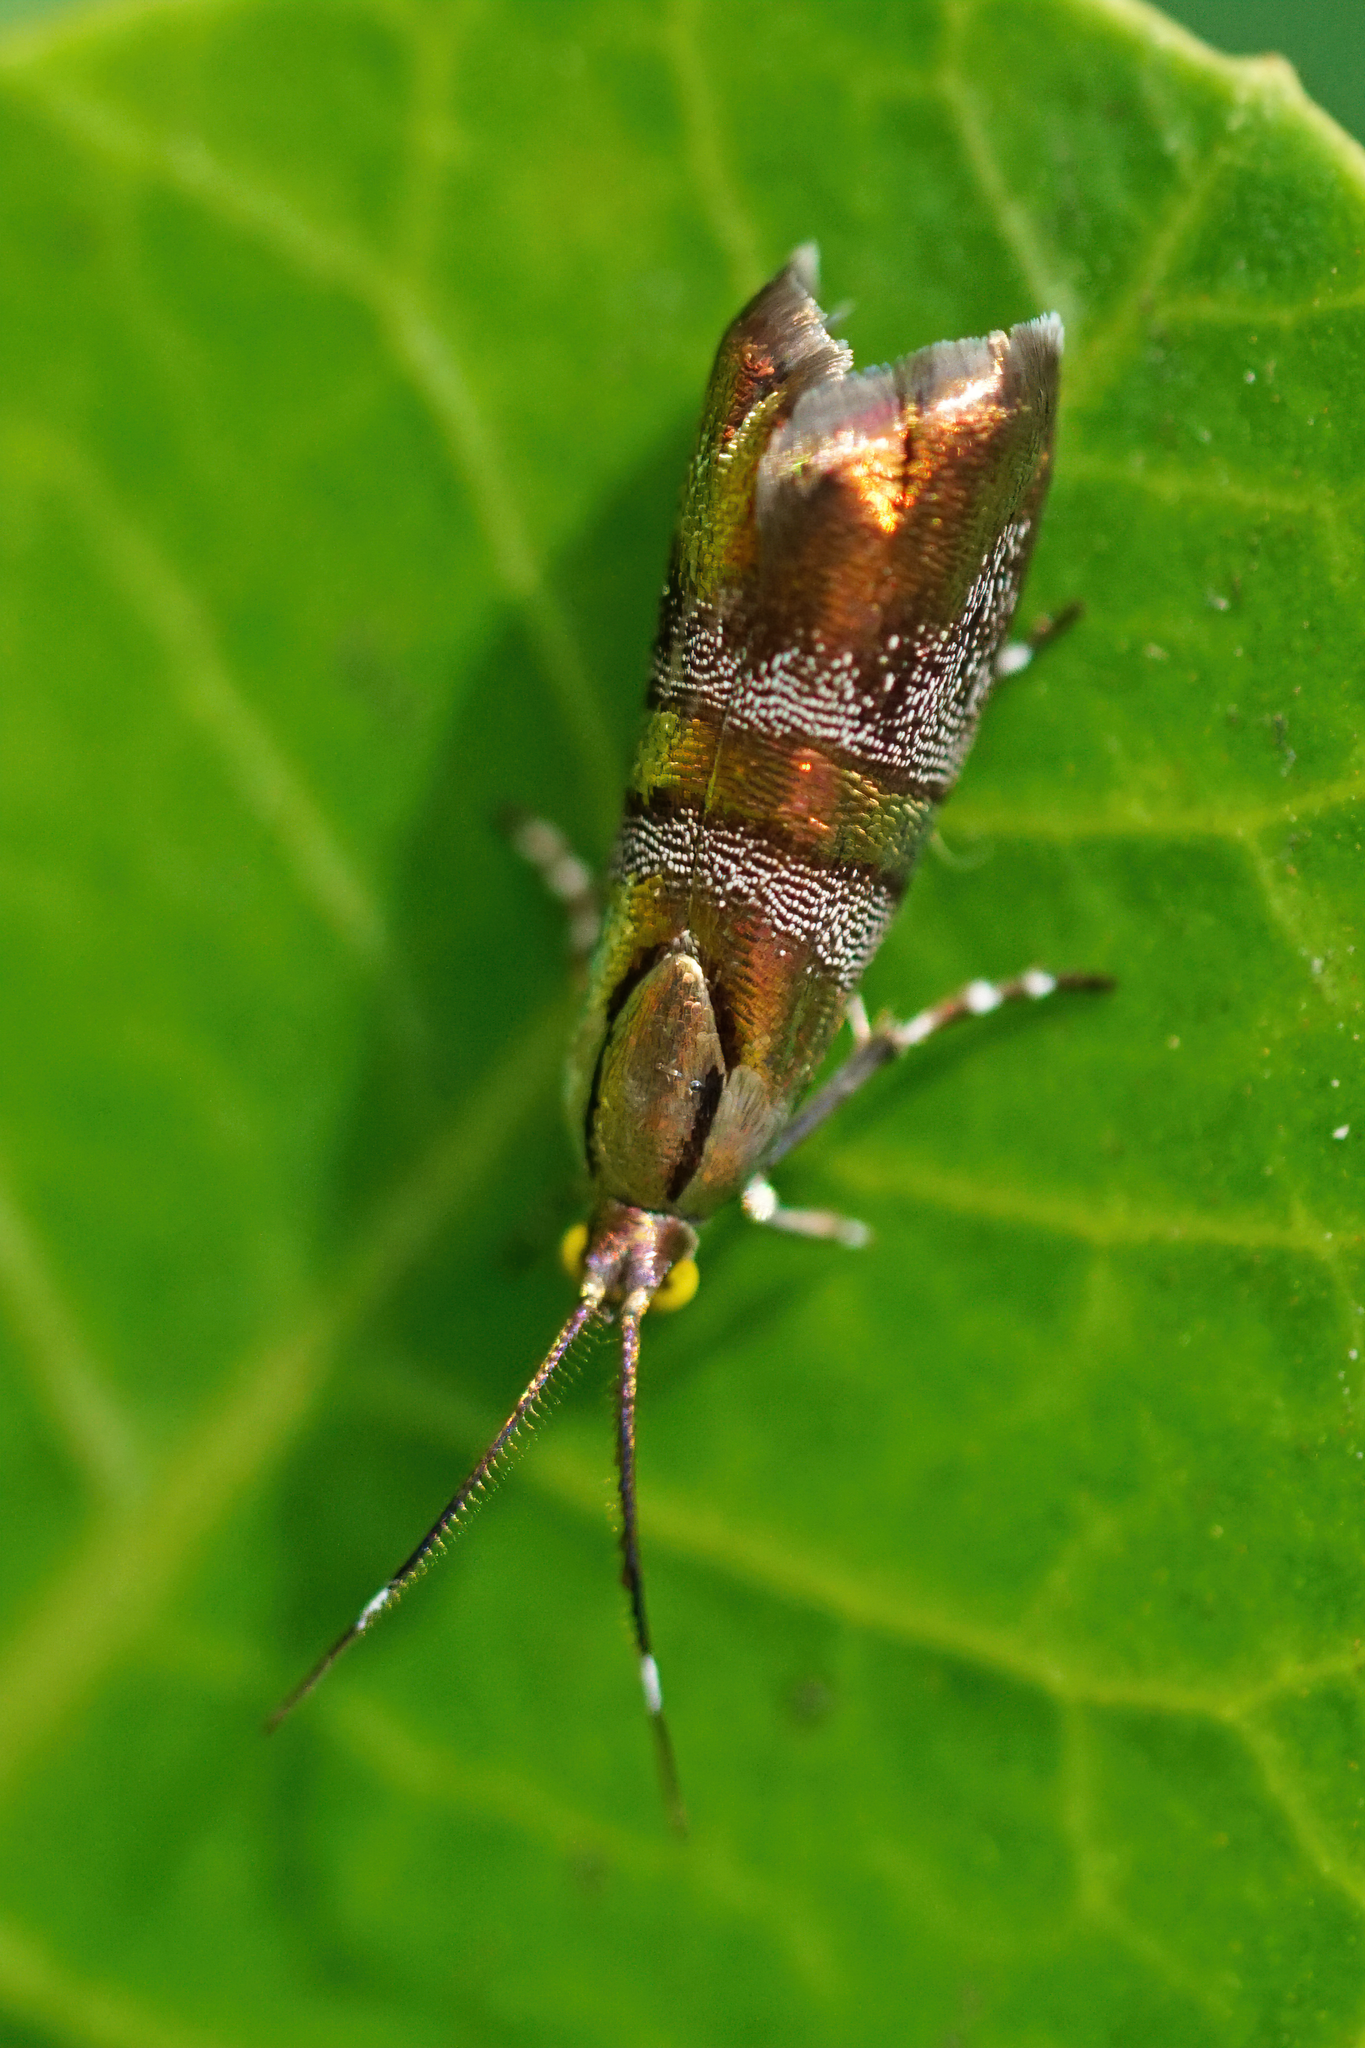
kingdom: Animalia
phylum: Arthropoda
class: Insecta
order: Lepidoptera
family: Choreutidae
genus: Tortyra
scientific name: Tortyra slossonia
